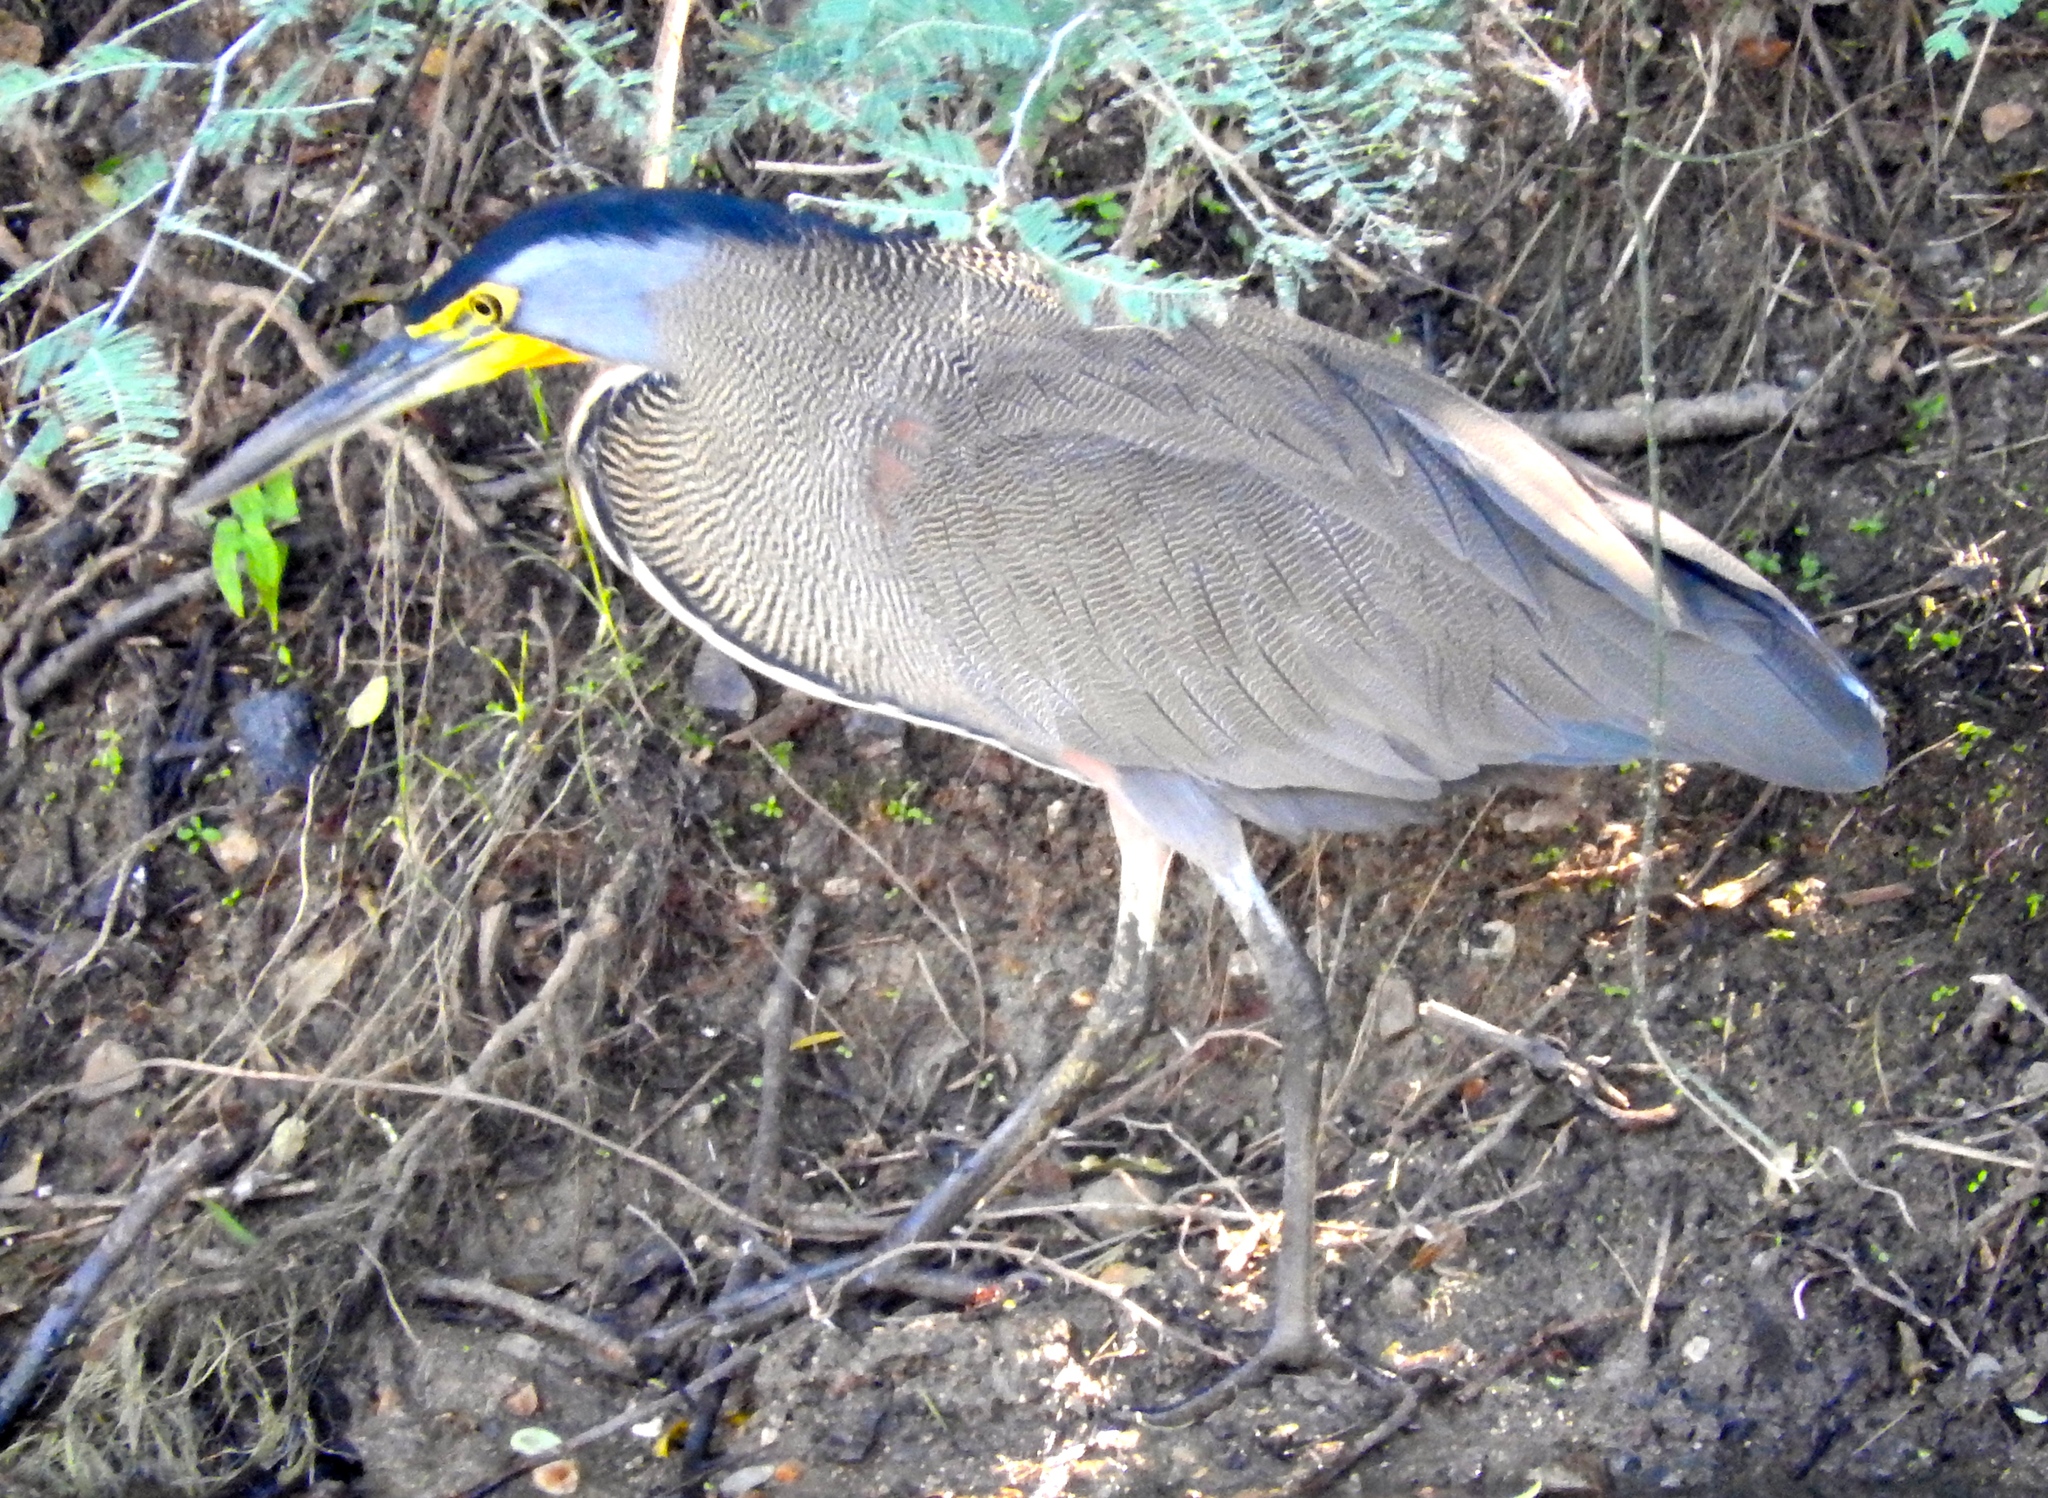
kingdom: Animalia
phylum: Chordata
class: Aves
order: Pelecaniformes
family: Ardeidae
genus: Tigrisoma
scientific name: Tigrisoma mexicanum
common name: Bare-throated tiger-heron
